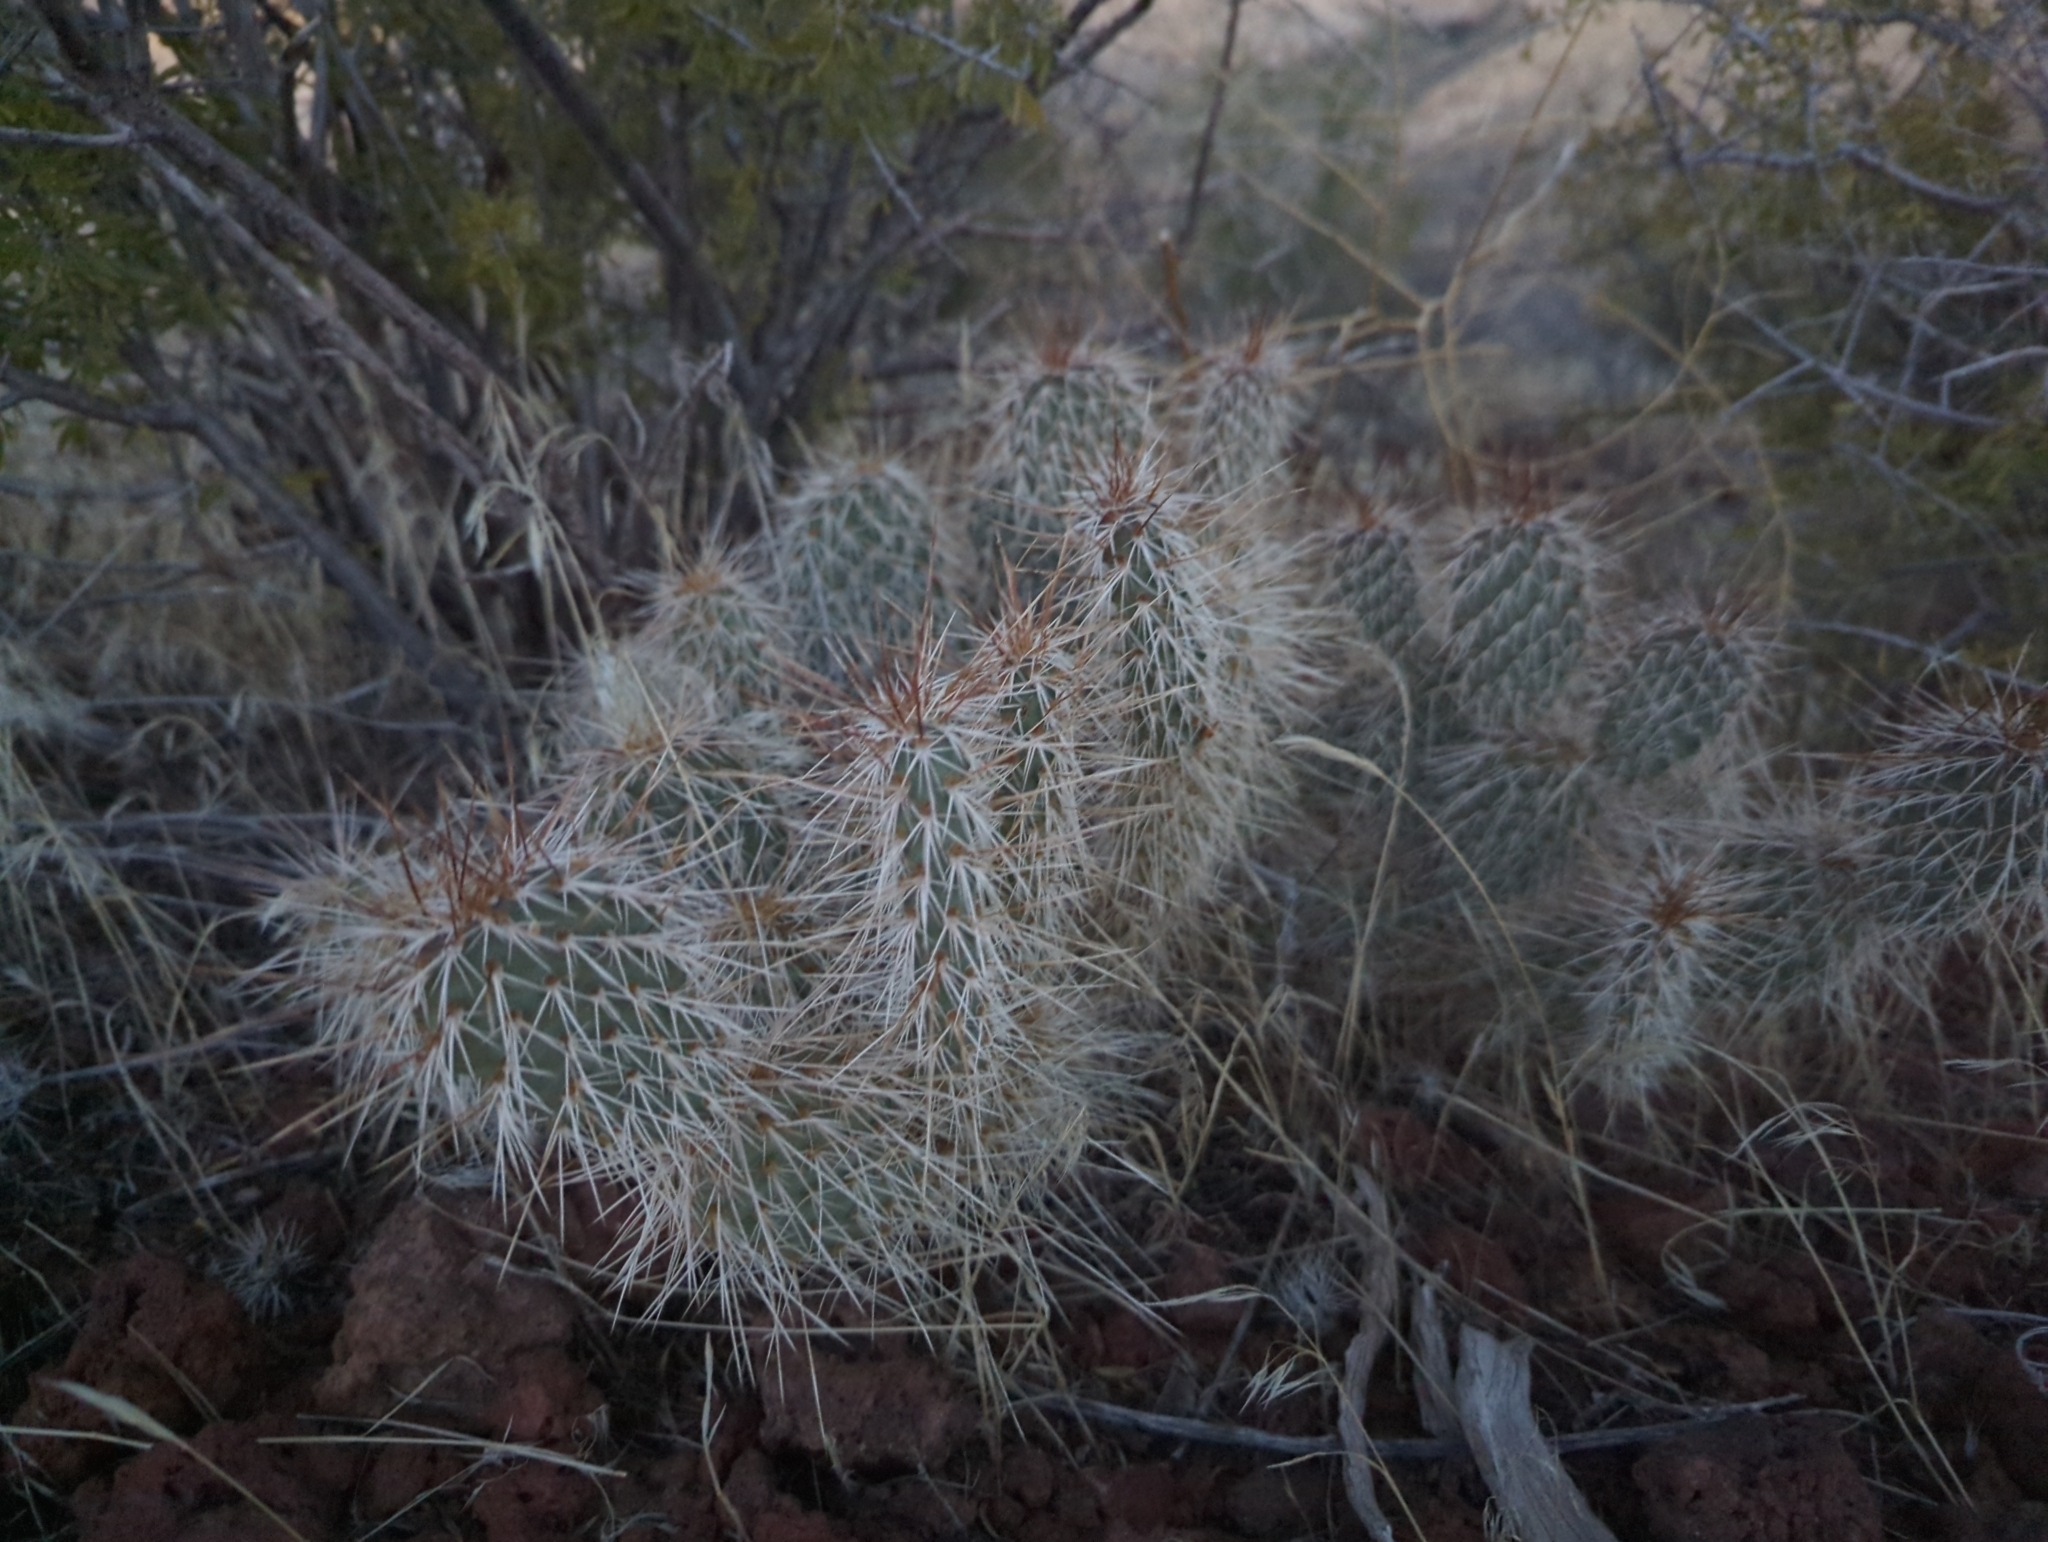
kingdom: Plantae
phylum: Tracheophyta
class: Magnoliopsida
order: Caryophyllales
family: Cactaceae
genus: Opuntia
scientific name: Opuntia polyacantha
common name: Plains prickly-pear
